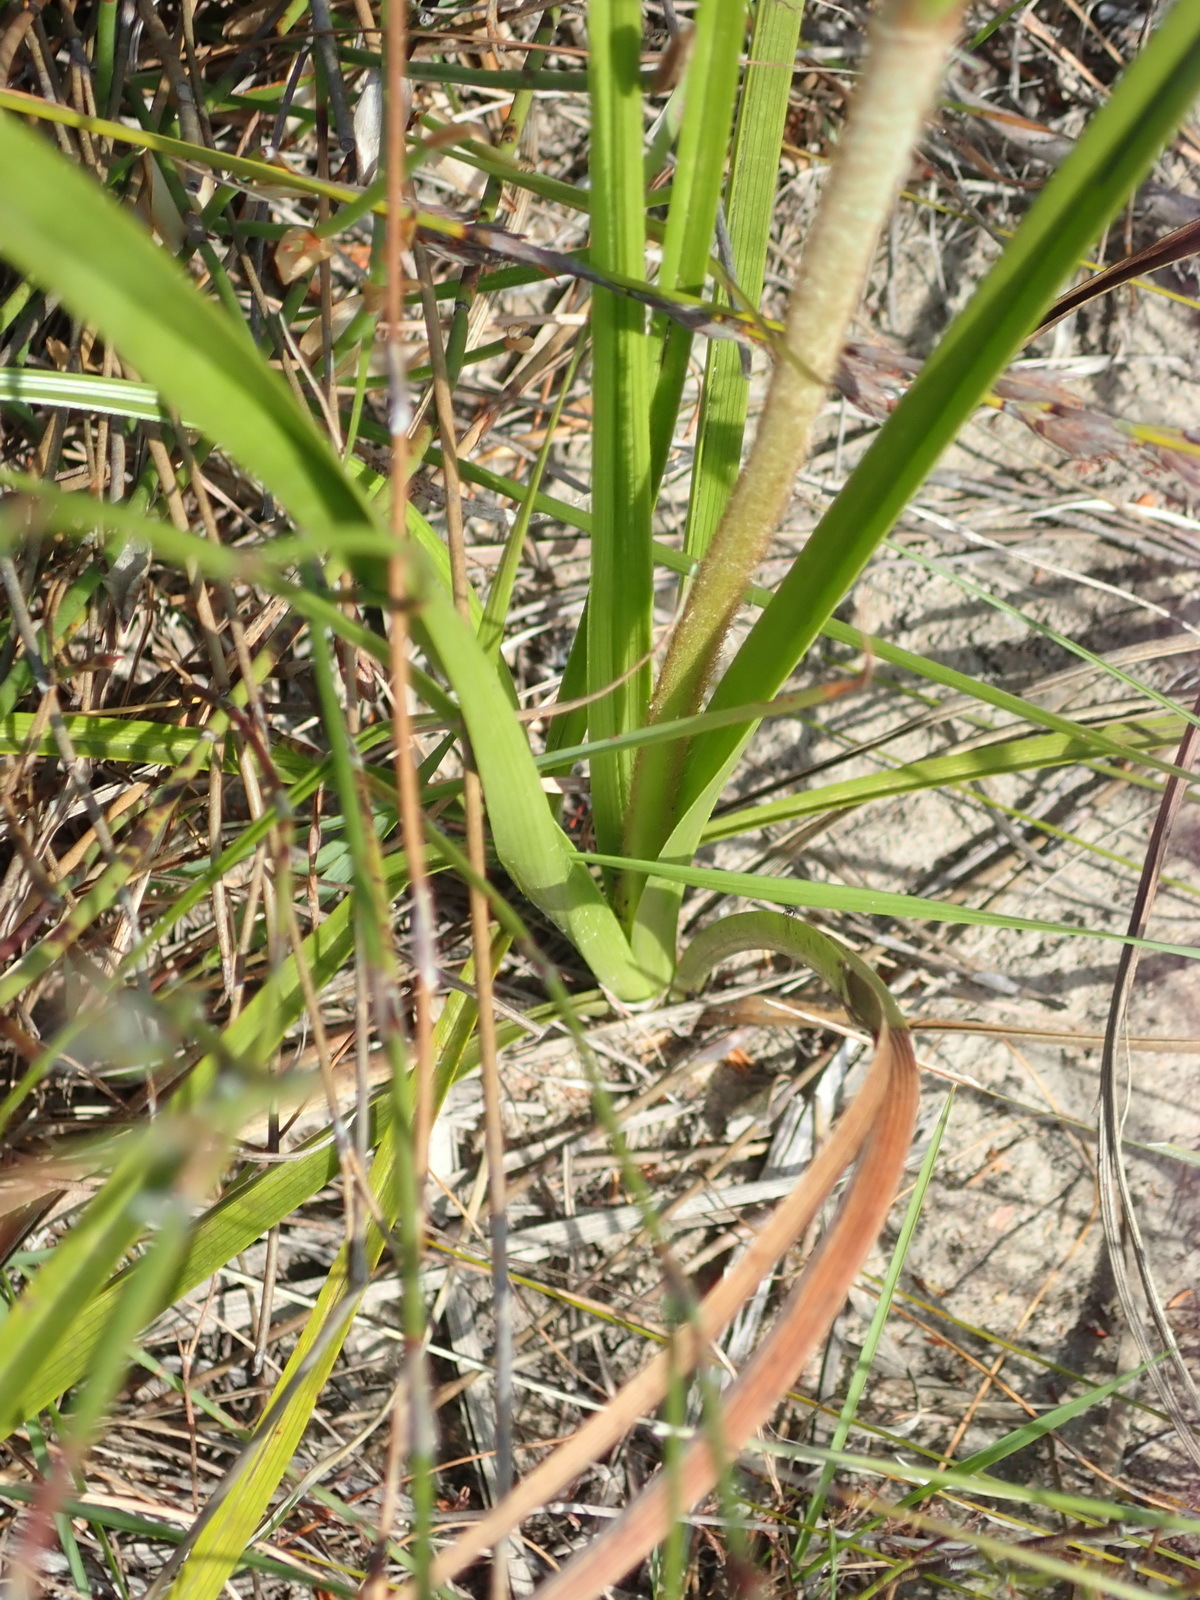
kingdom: Plantae
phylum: Tracheophyta
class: Liliopsida
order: Asparagales
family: Lanariaceae
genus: Lanaria
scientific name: Lanaria lanata
